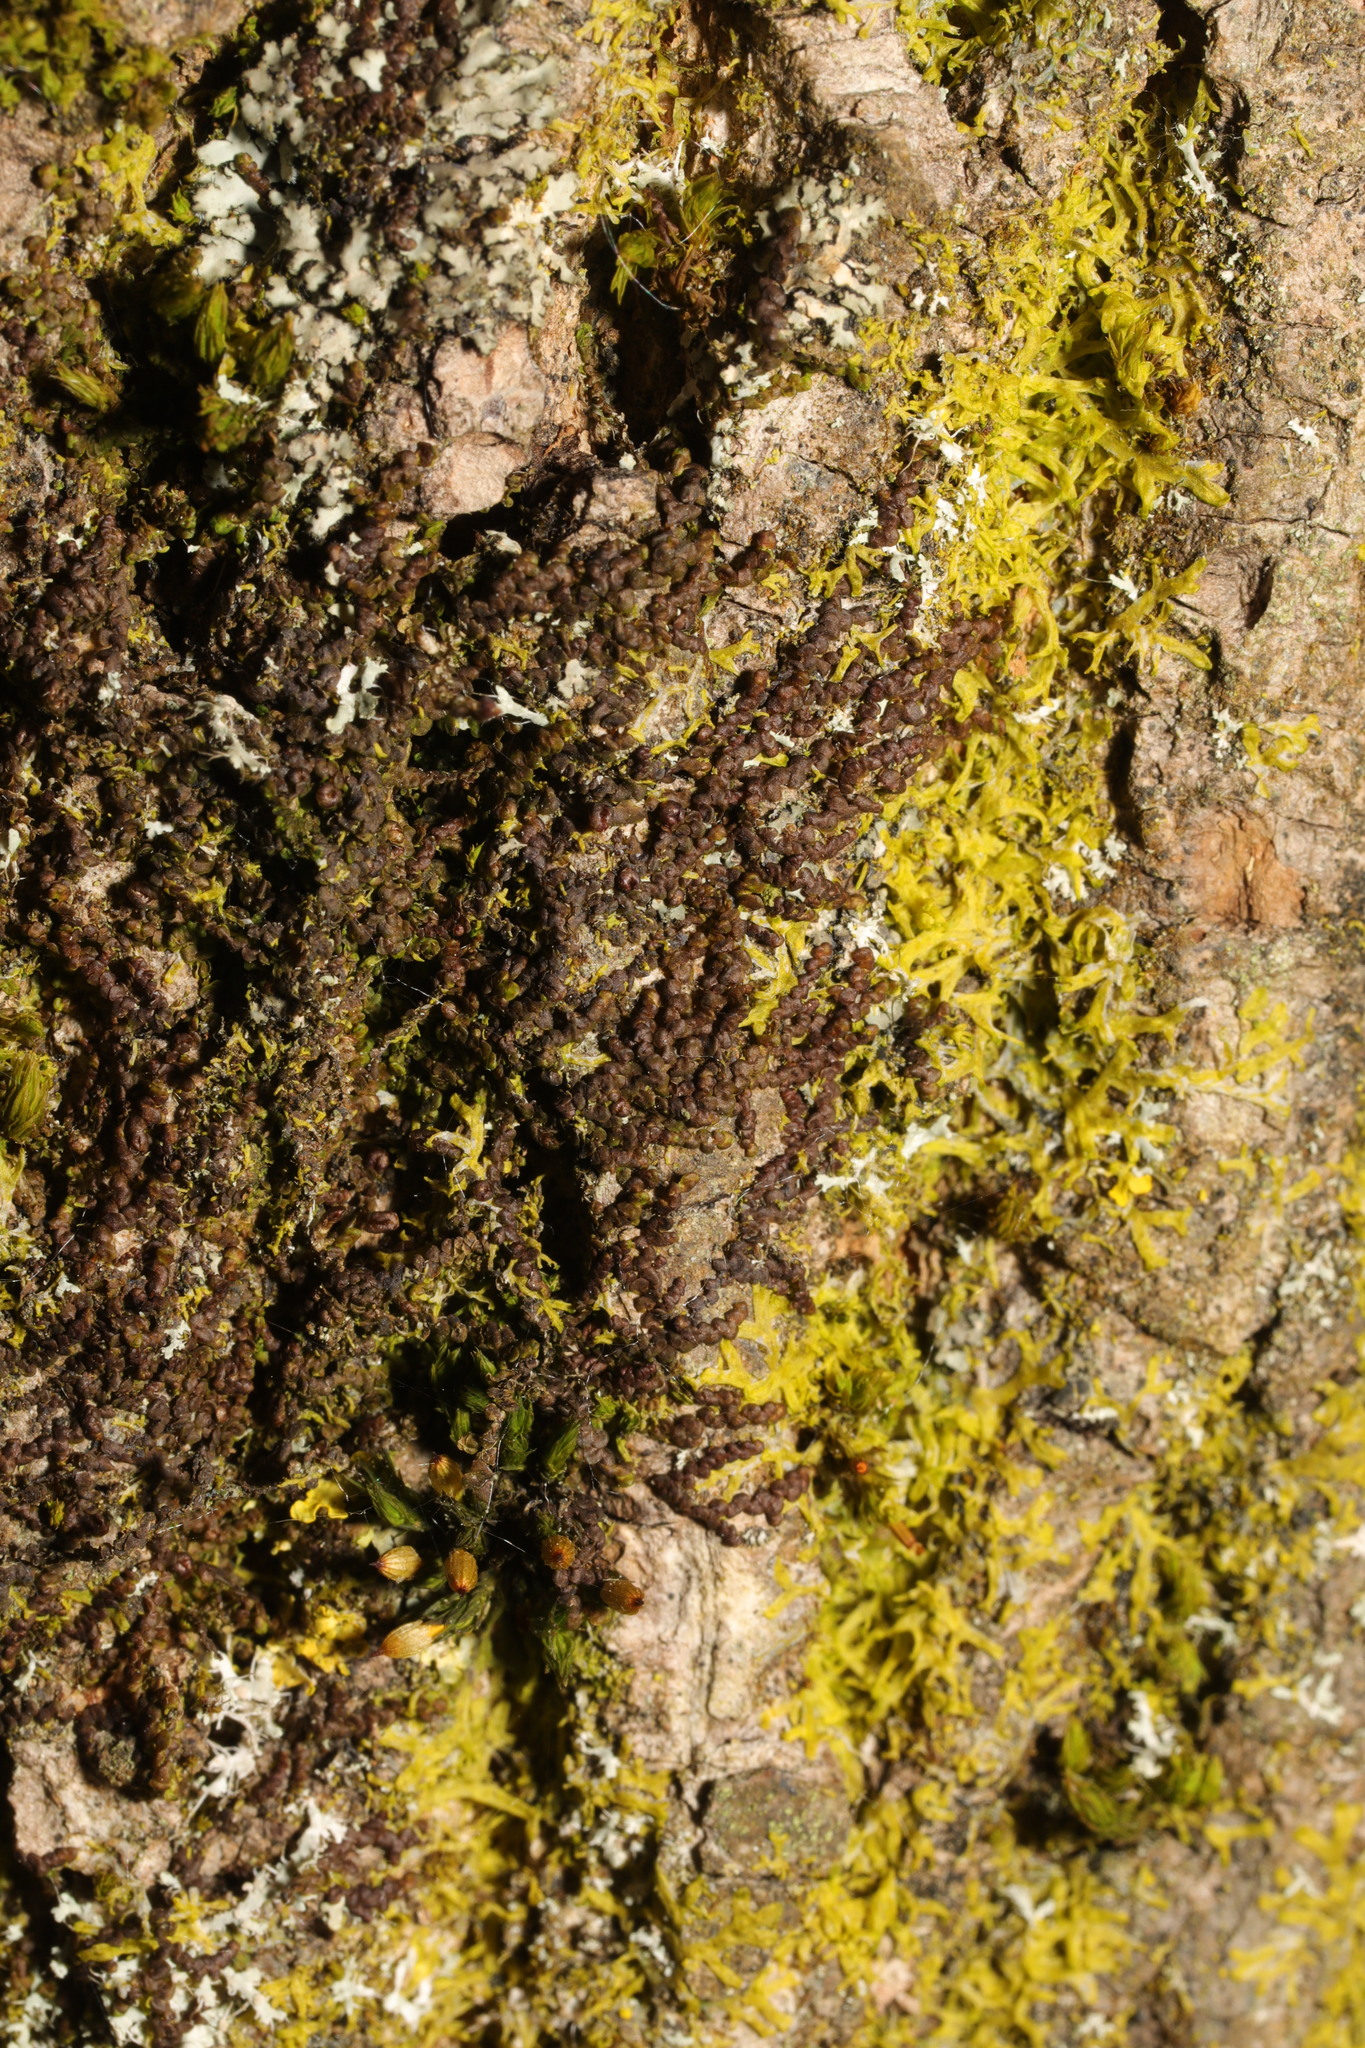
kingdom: Plantae
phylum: Marchantiophyta
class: Jungermanniopsida
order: Porellales
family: Frullaniaceae
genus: Frullania
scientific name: Frullania dilatata
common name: Dilated scalewort
